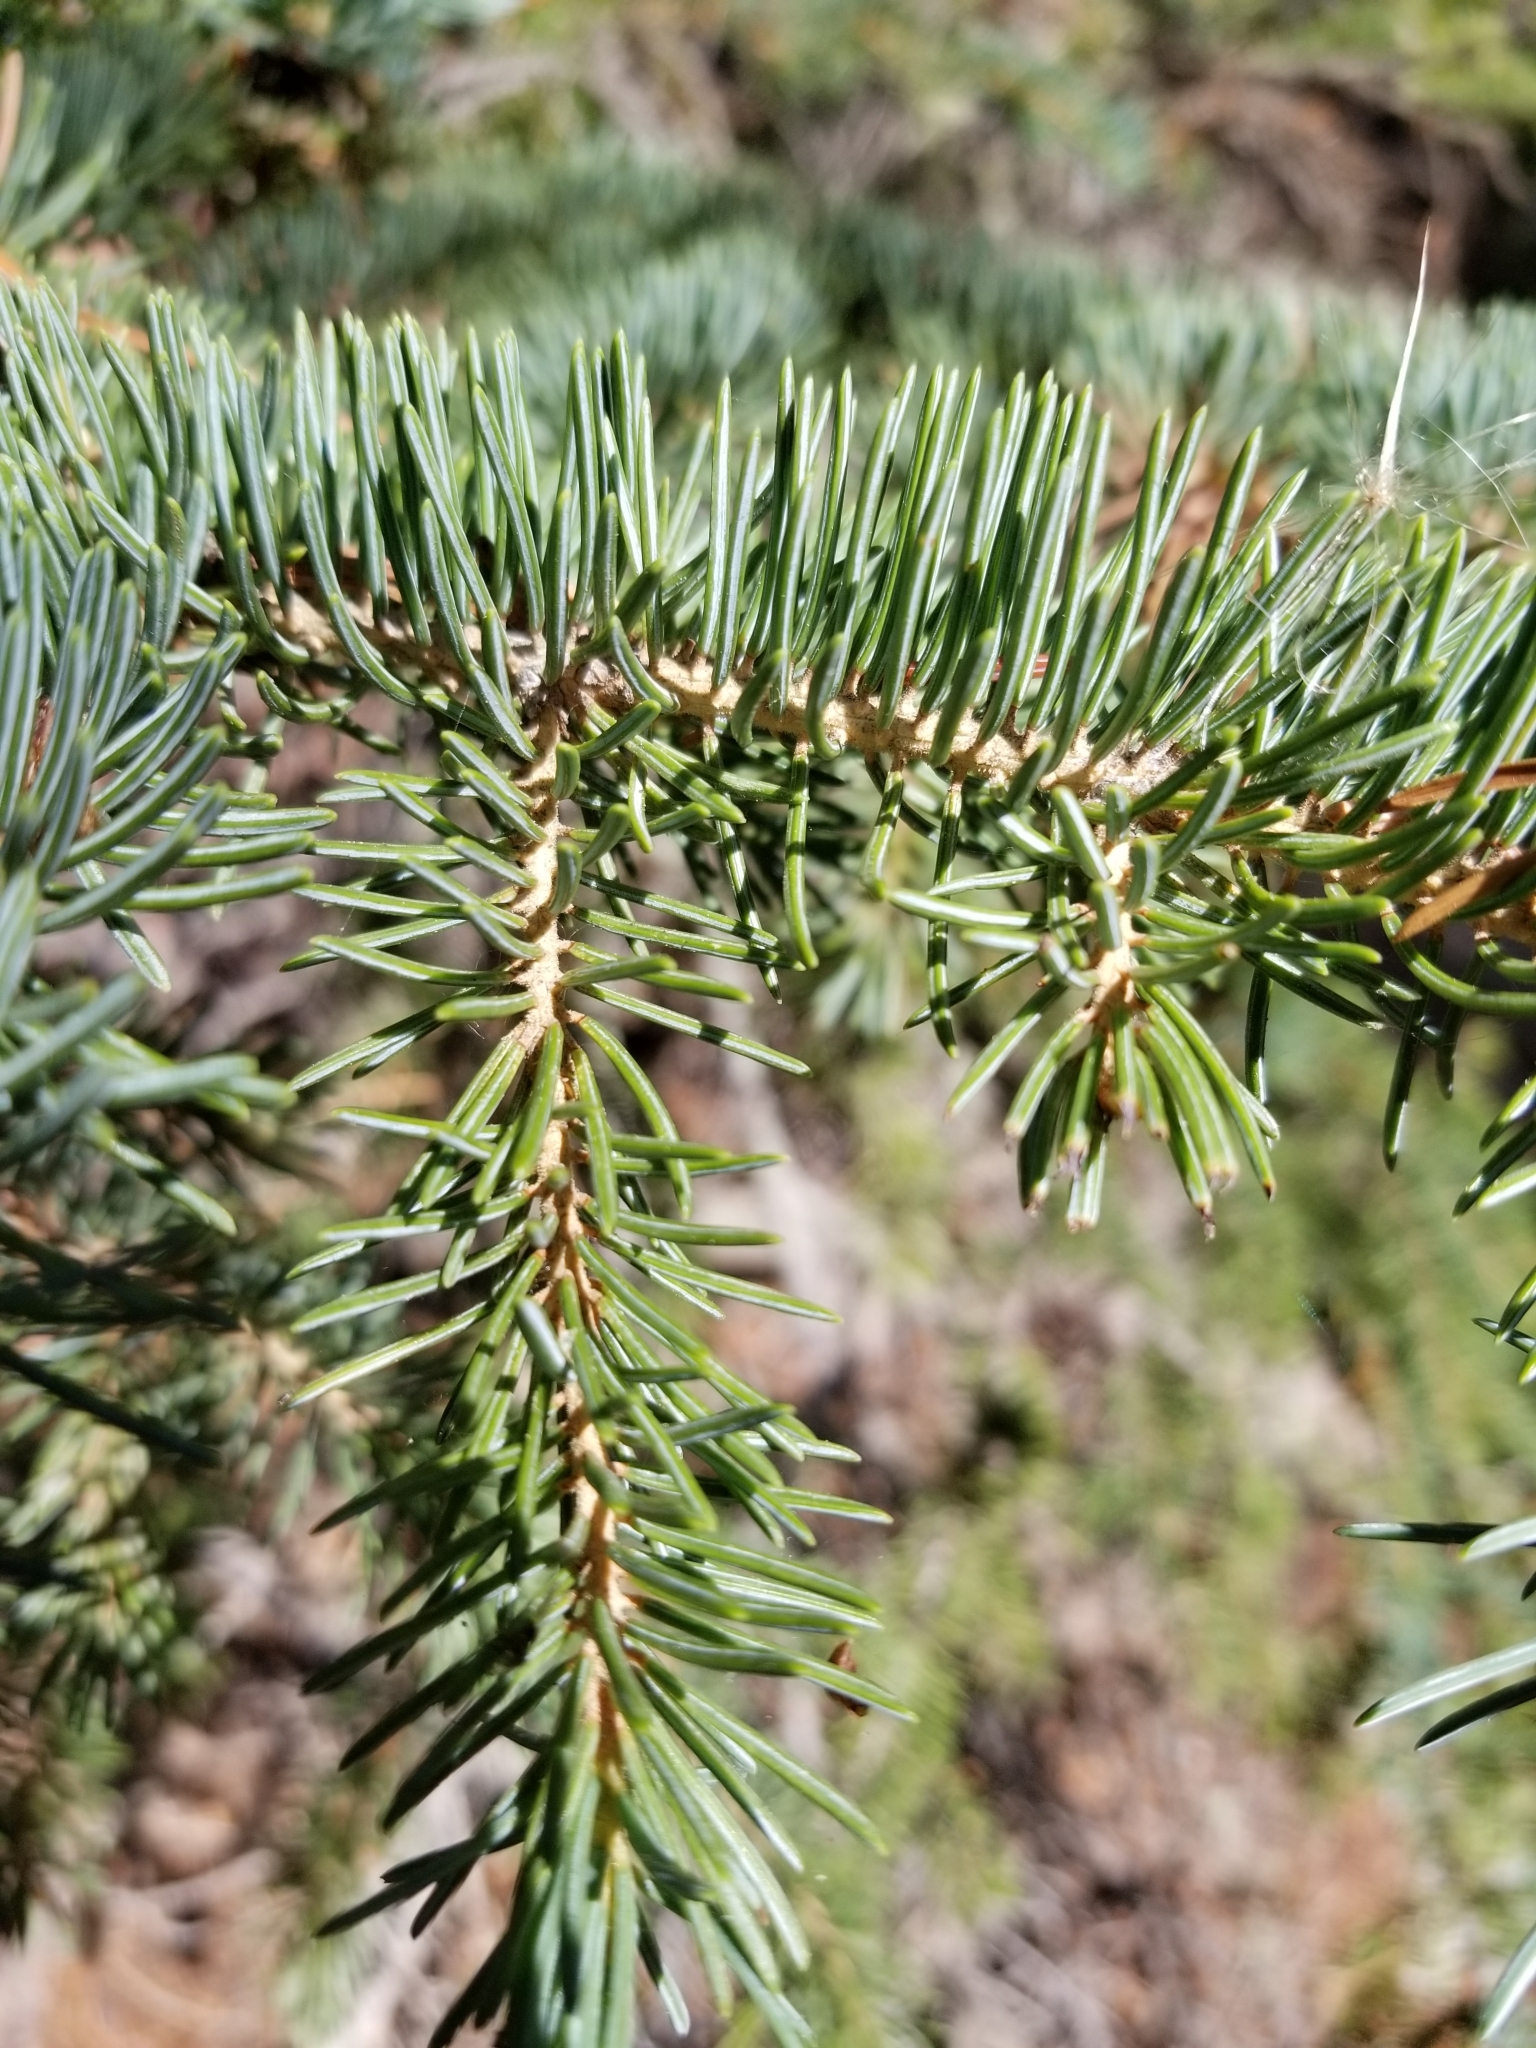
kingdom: Plantae
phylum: Tracheophyta
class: Pinopsida
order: Pinales
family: Pinaceae
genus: Picea
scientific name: Picea engelmannii
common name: Engelmann spruce
